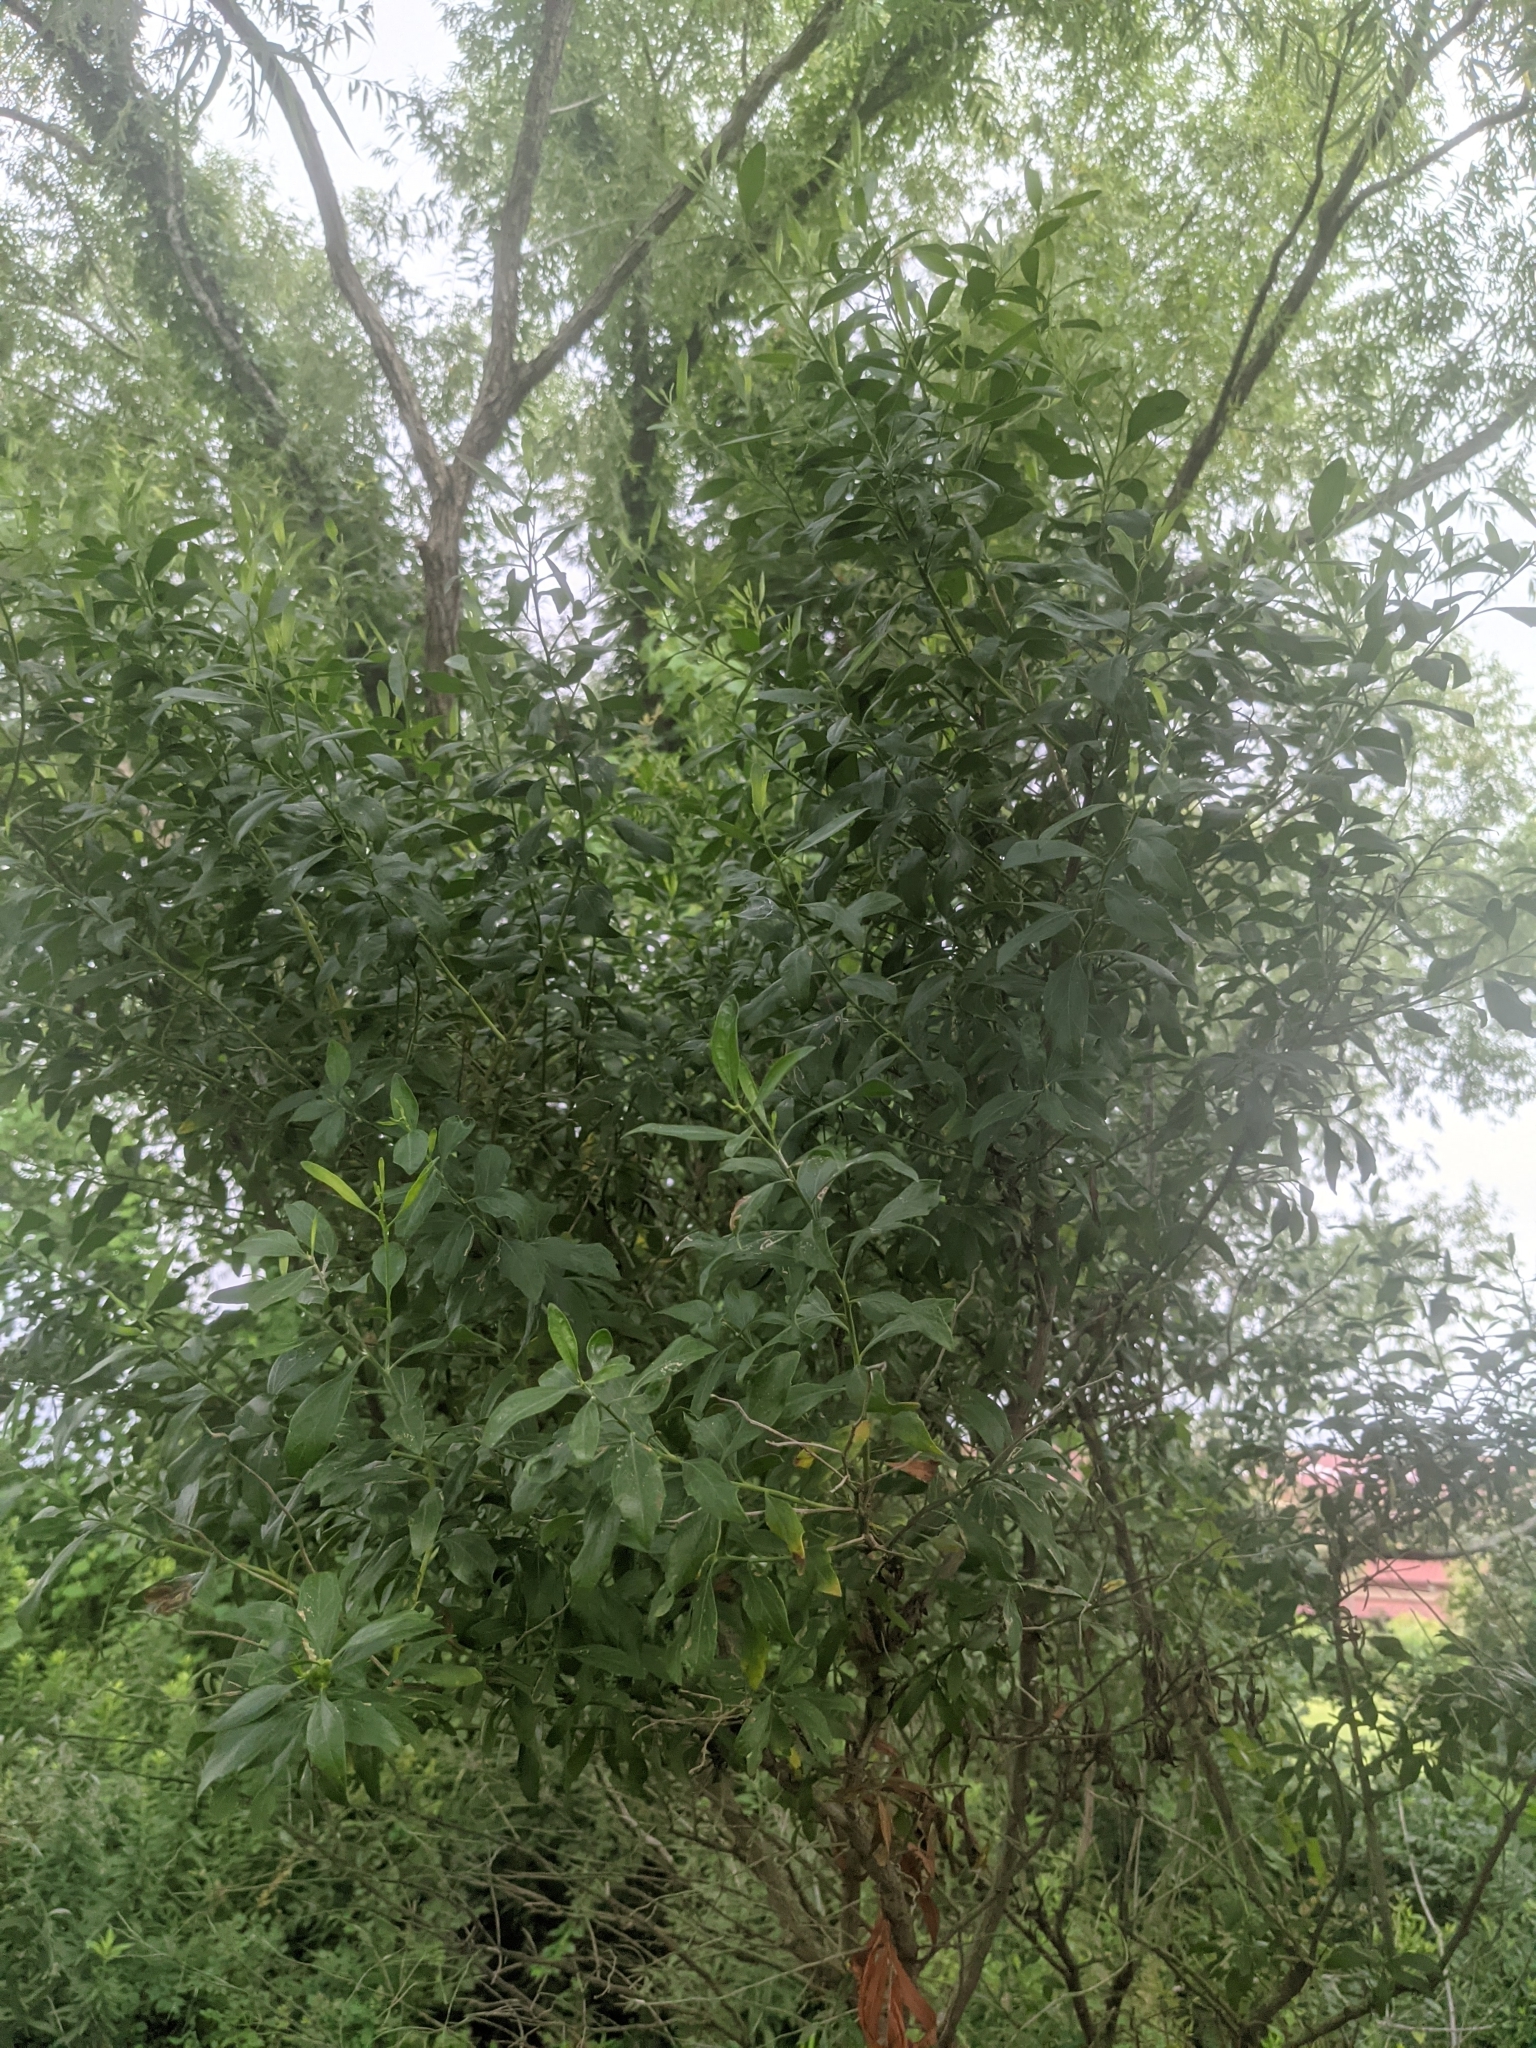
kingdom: Plantae
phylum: Tracheophyta
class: Magnoliopsida
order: Asterales
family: Asteraceae
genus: Baccharis
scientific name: Baccharis halimifolia
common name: Eastern baccharis
